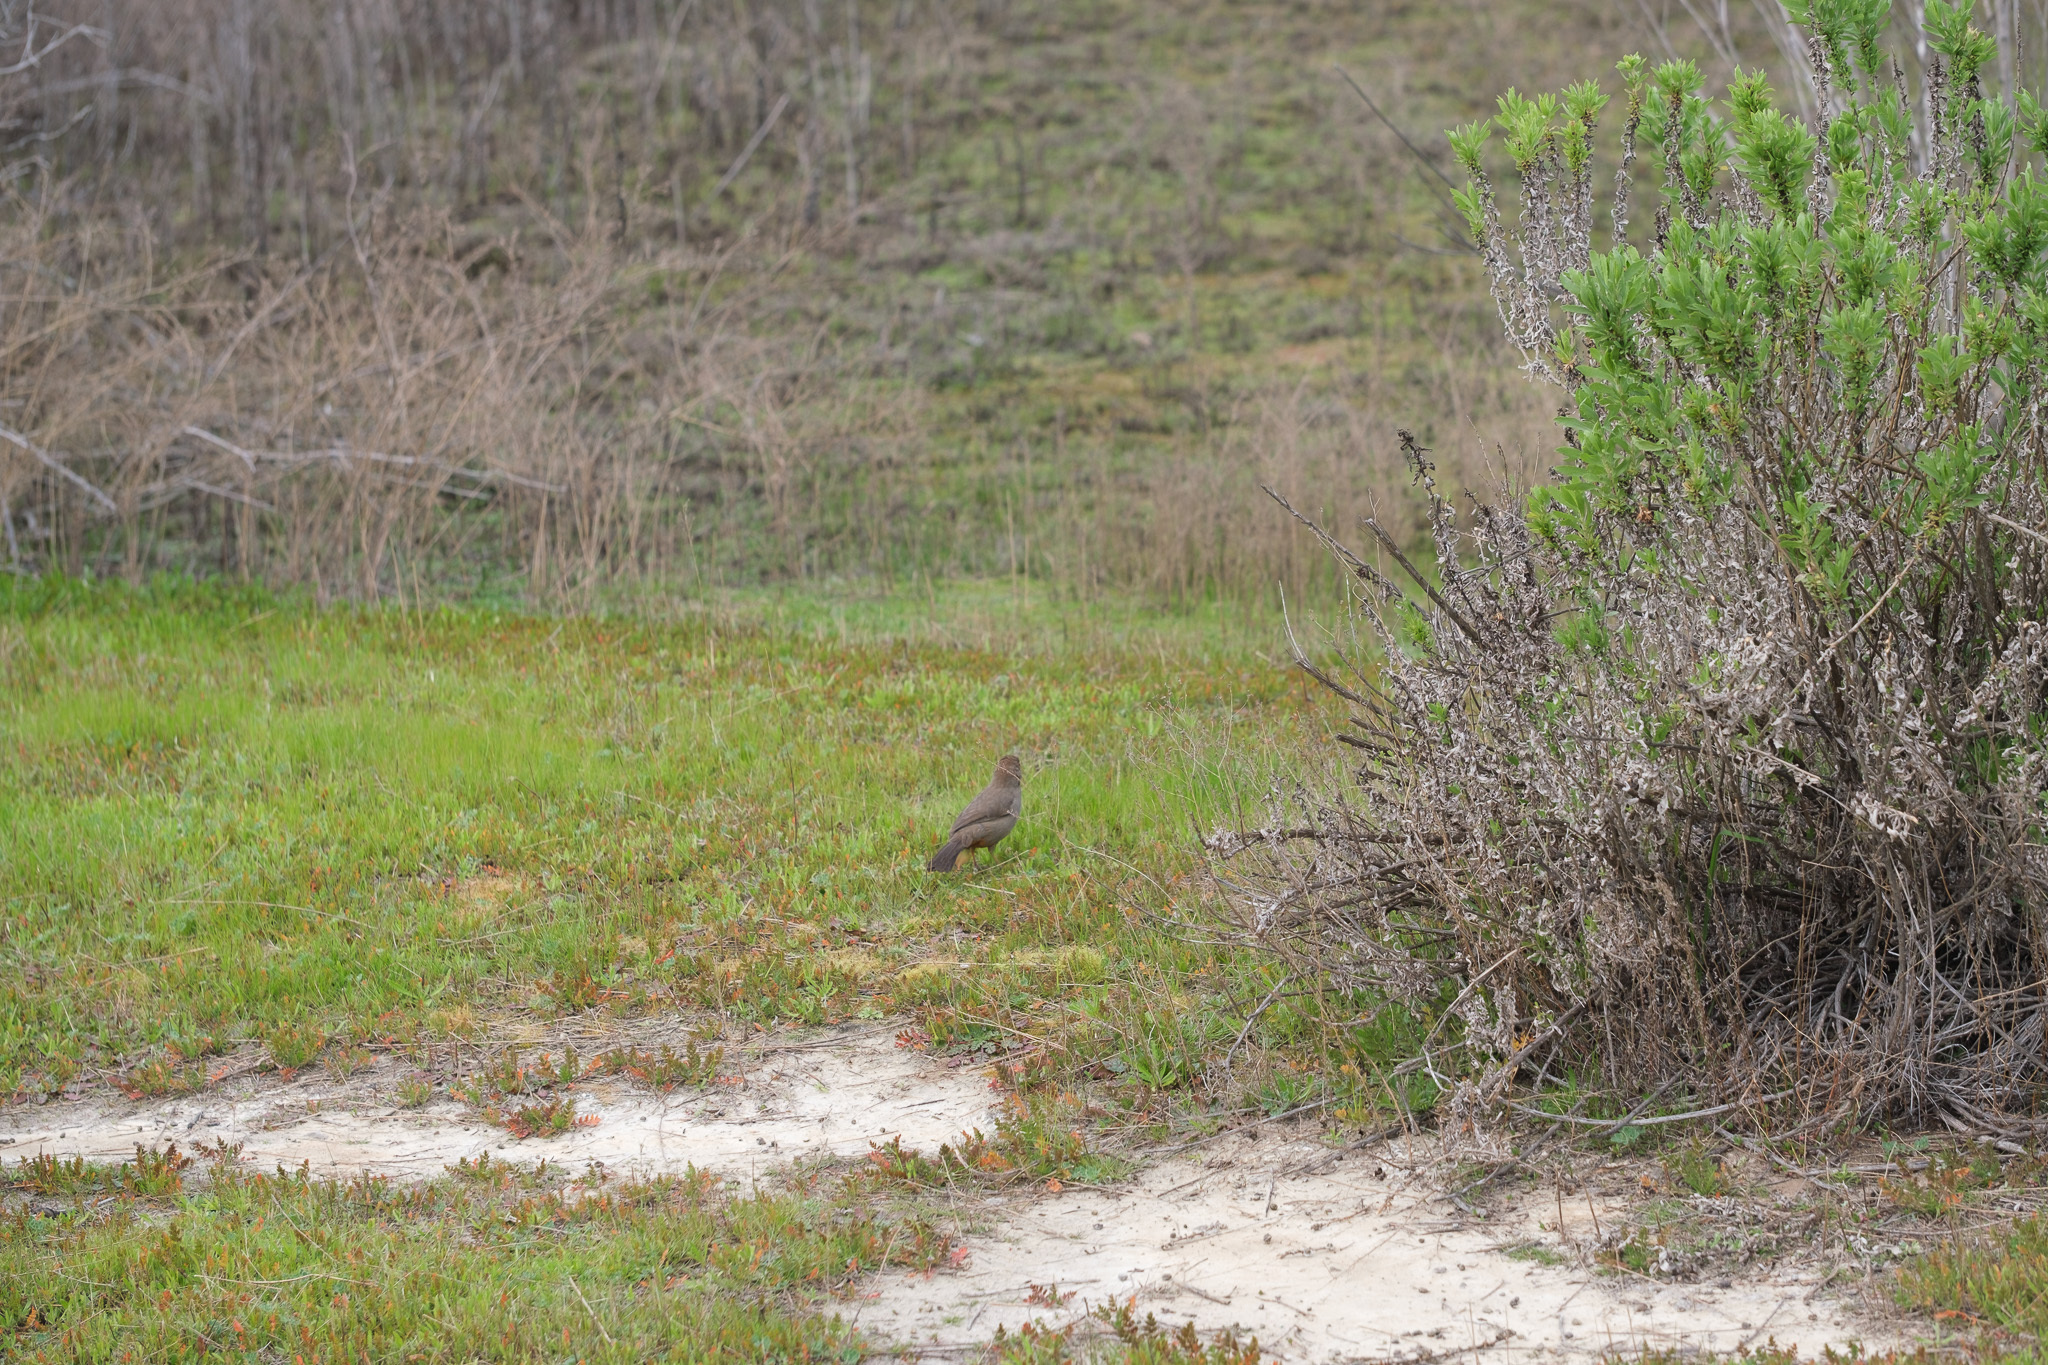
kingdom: Animalia
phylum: Chordata
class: Aves
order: Passeriformes
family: Passerellidae
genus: Melozone
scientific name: Melozone crissalis
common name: California towhee
